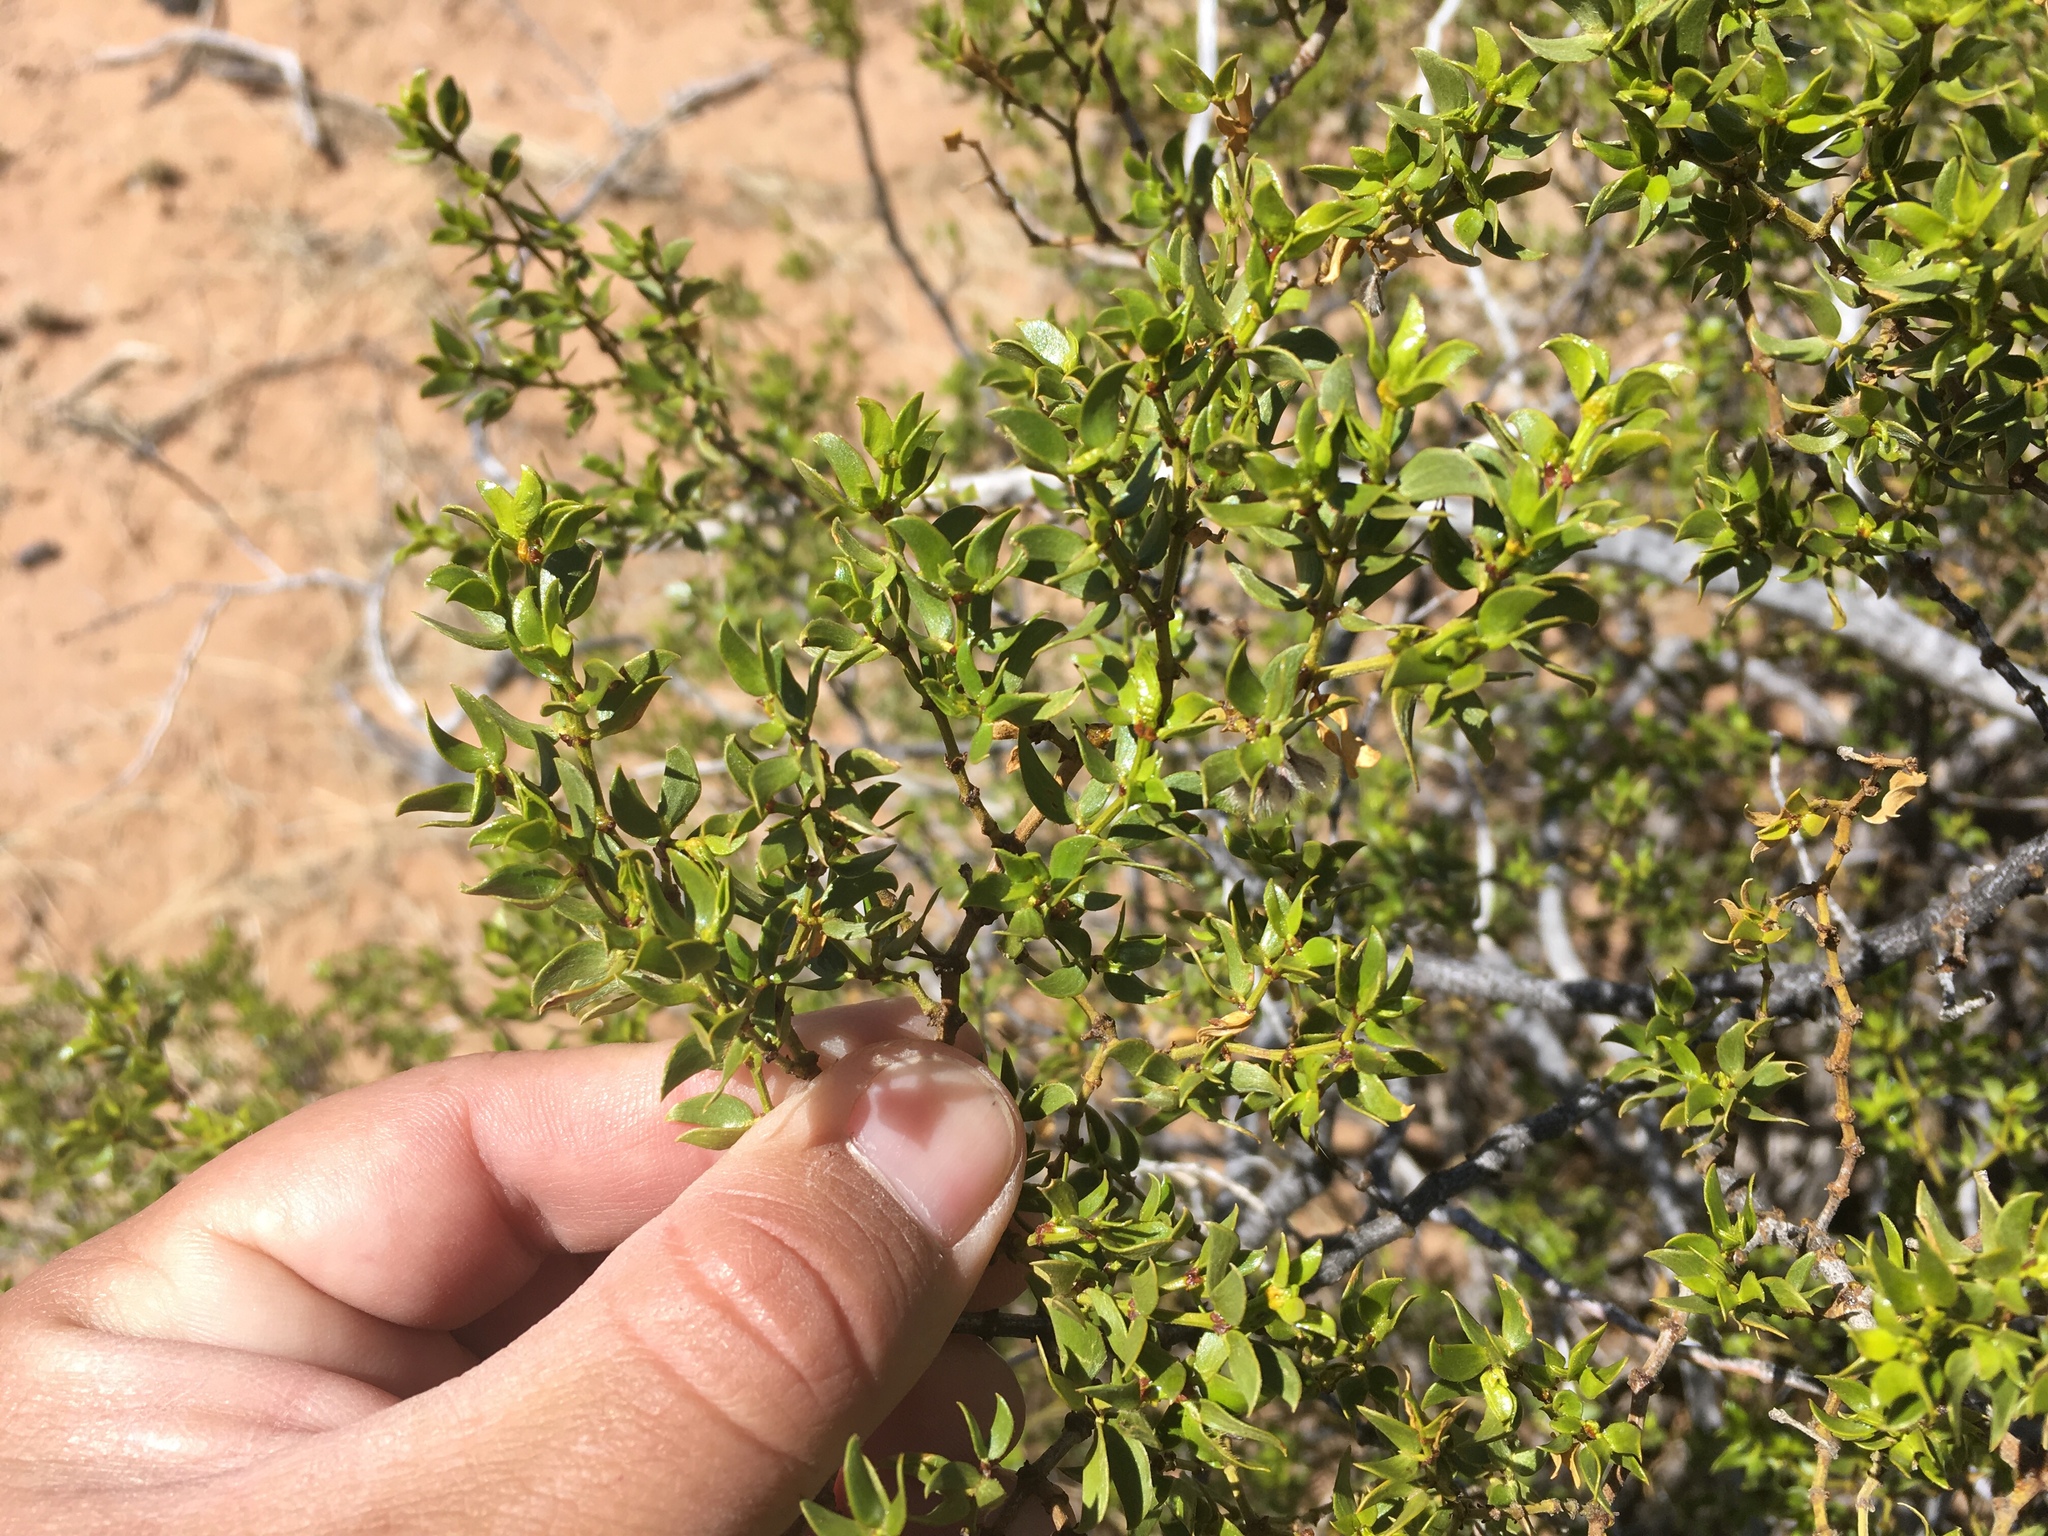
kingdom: Plantae
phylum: Tracheophyta
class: Magnoliopsida
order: Zygophyllales
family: Zygophyllaceae
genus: Larrea
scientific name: Larrea tridentata
